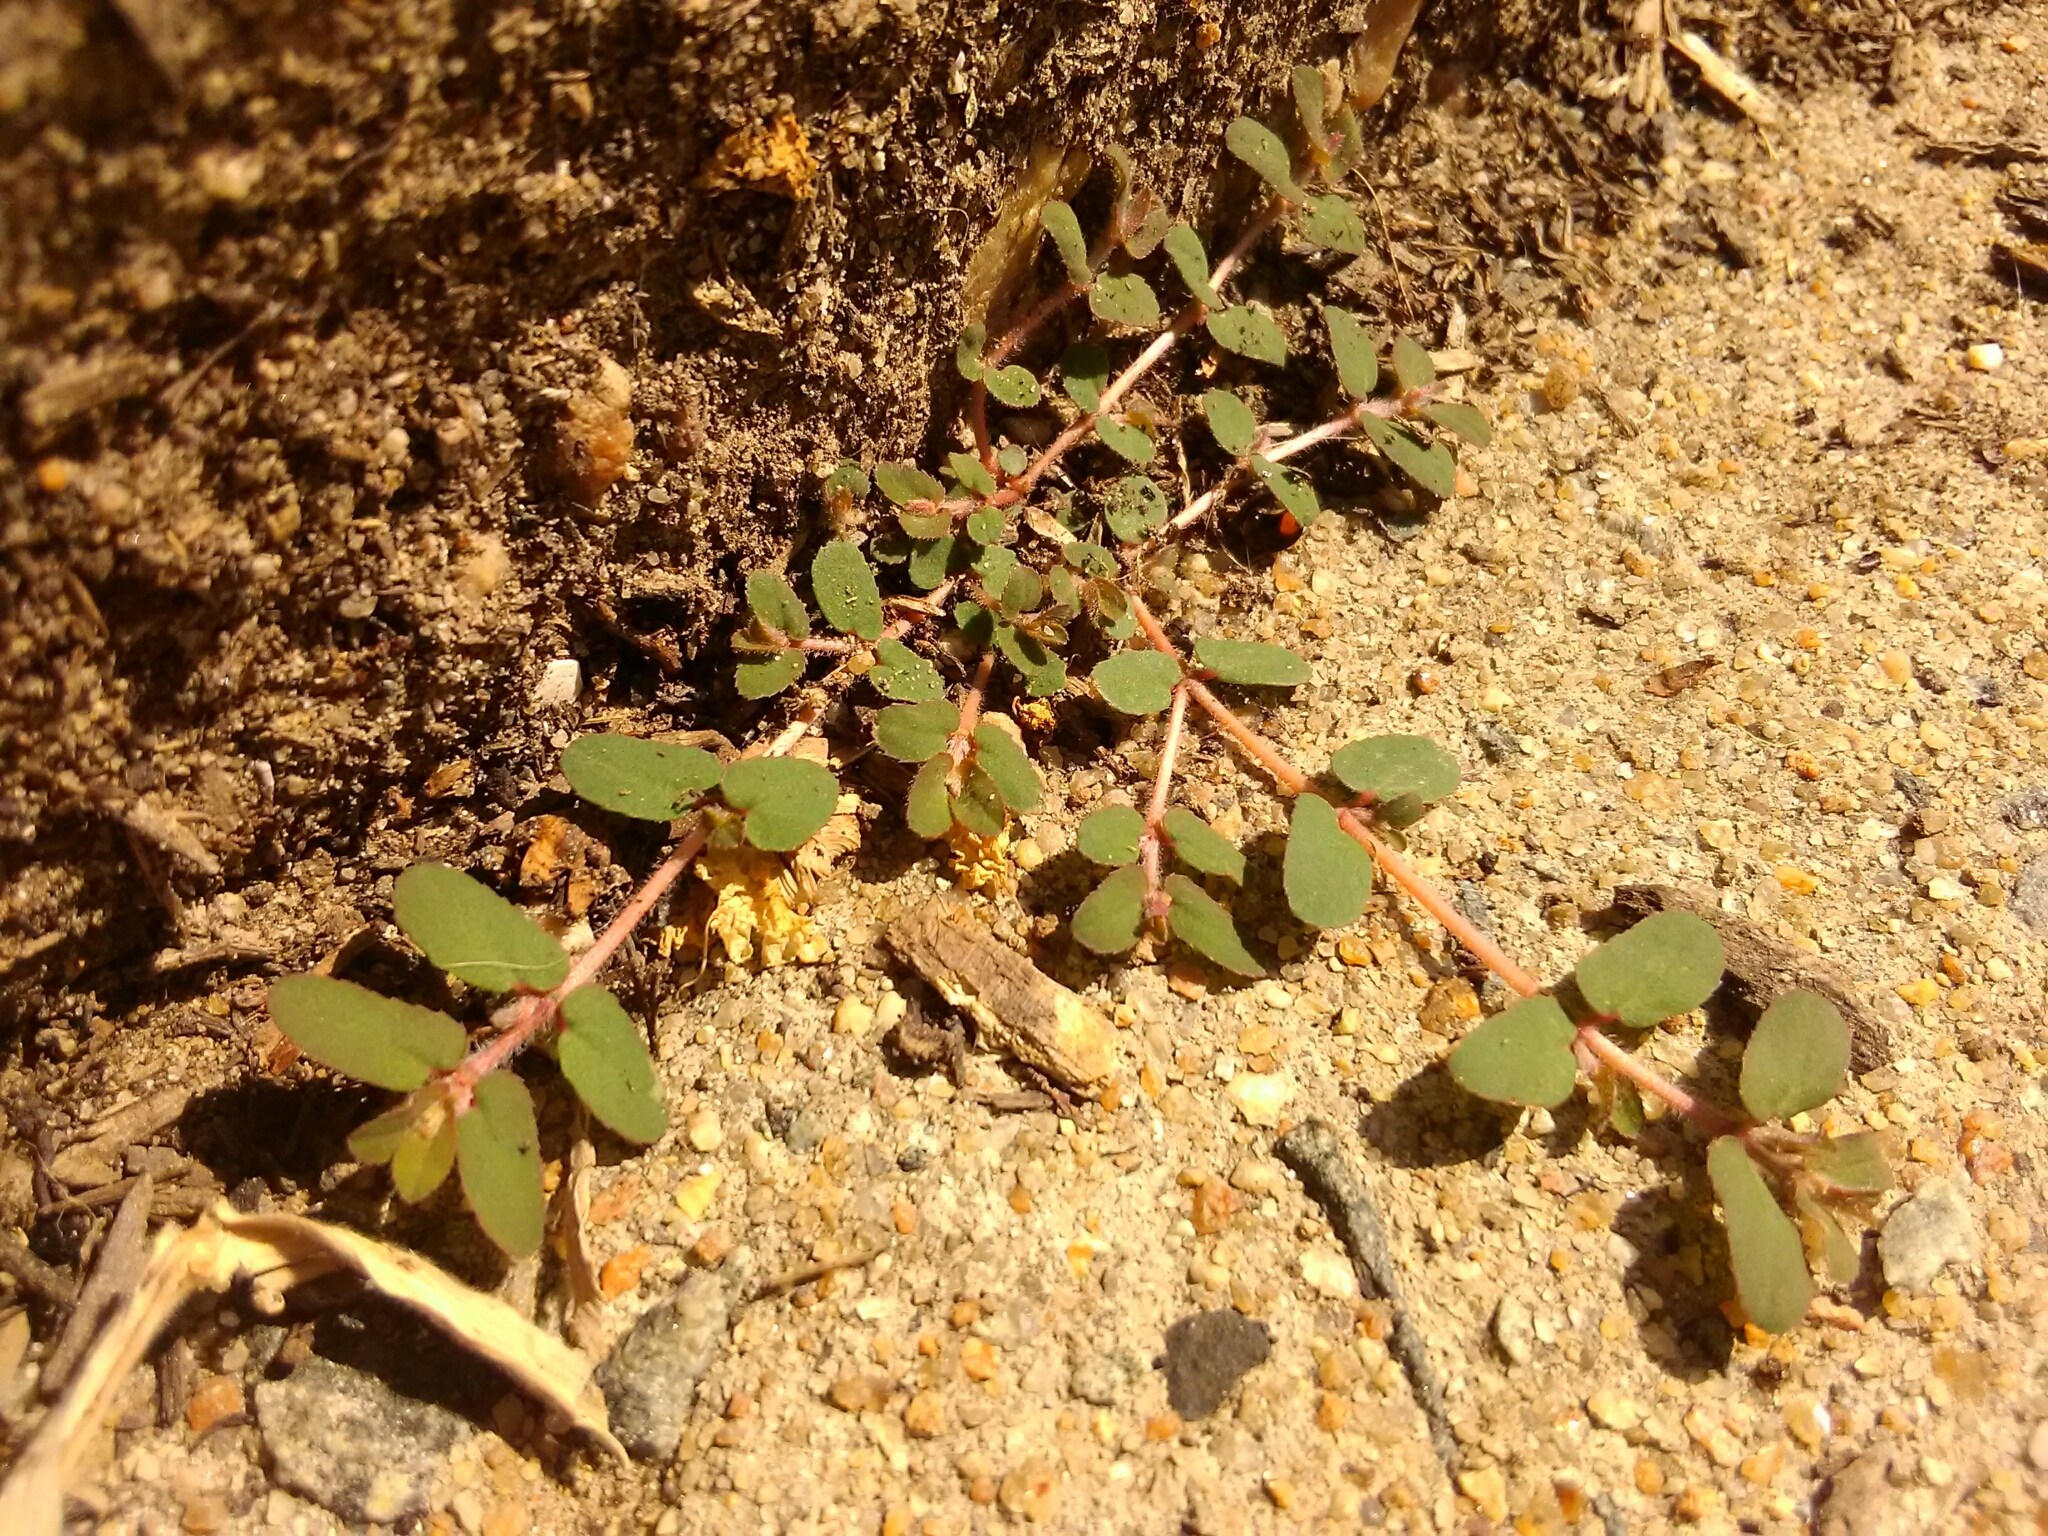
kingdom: Plantae
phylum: Tracheophyta
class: Magnoliopsida
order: Malpighiales
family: Euphorbiaceae
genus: Euphorbia
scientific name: Euphorbia maculata
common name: Spotted spurge
